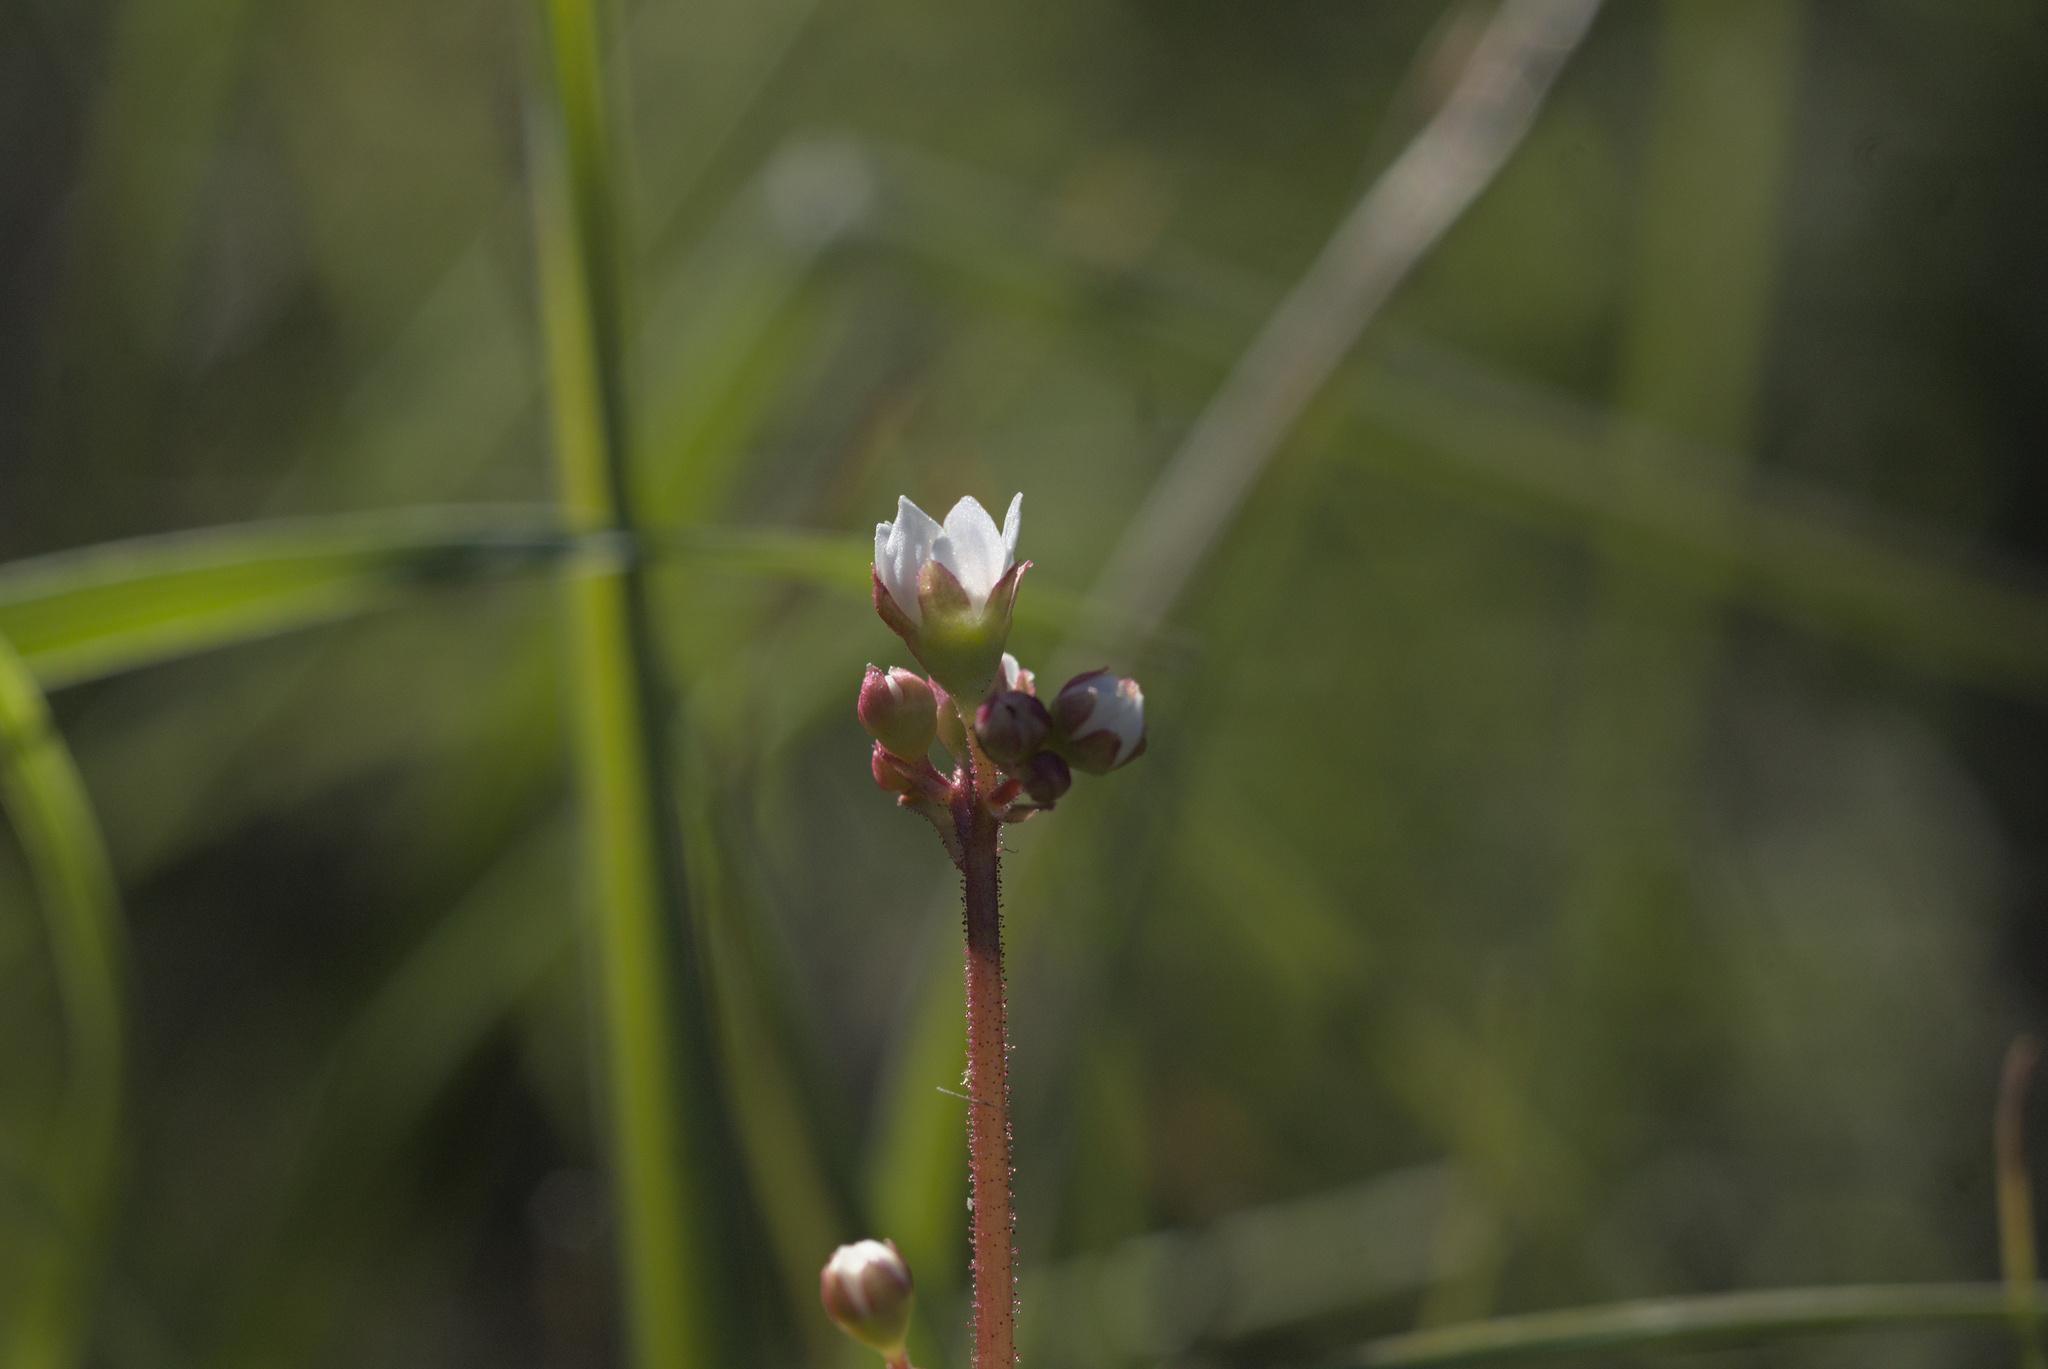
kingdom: Plantae
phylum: Tracheophyta
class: Magnoliopsida
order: Saxifragales
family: Saxifragaceae
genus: Micranthes
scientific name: Micranthes californica
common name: California saxifrage
